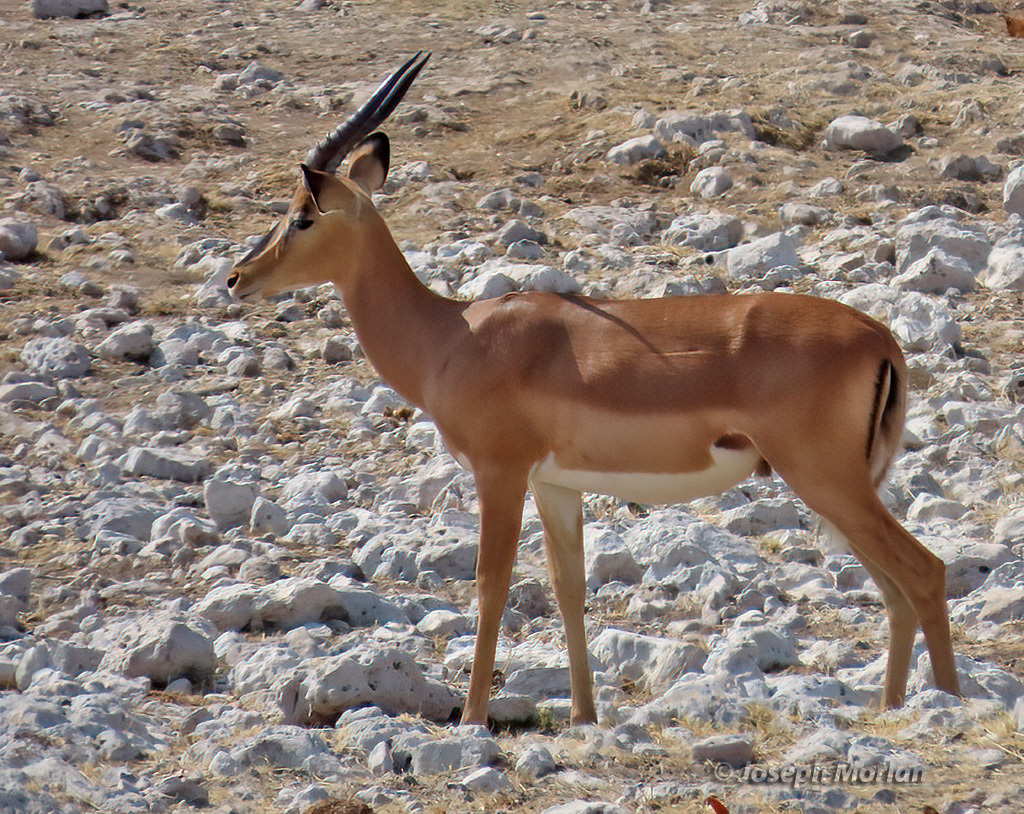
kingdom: Animalia
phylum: Chordata
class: Mammalia
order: Artiodactyla
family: Bovidae
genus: Aepyceros
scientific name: Aepyceros melampus
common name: Impala
